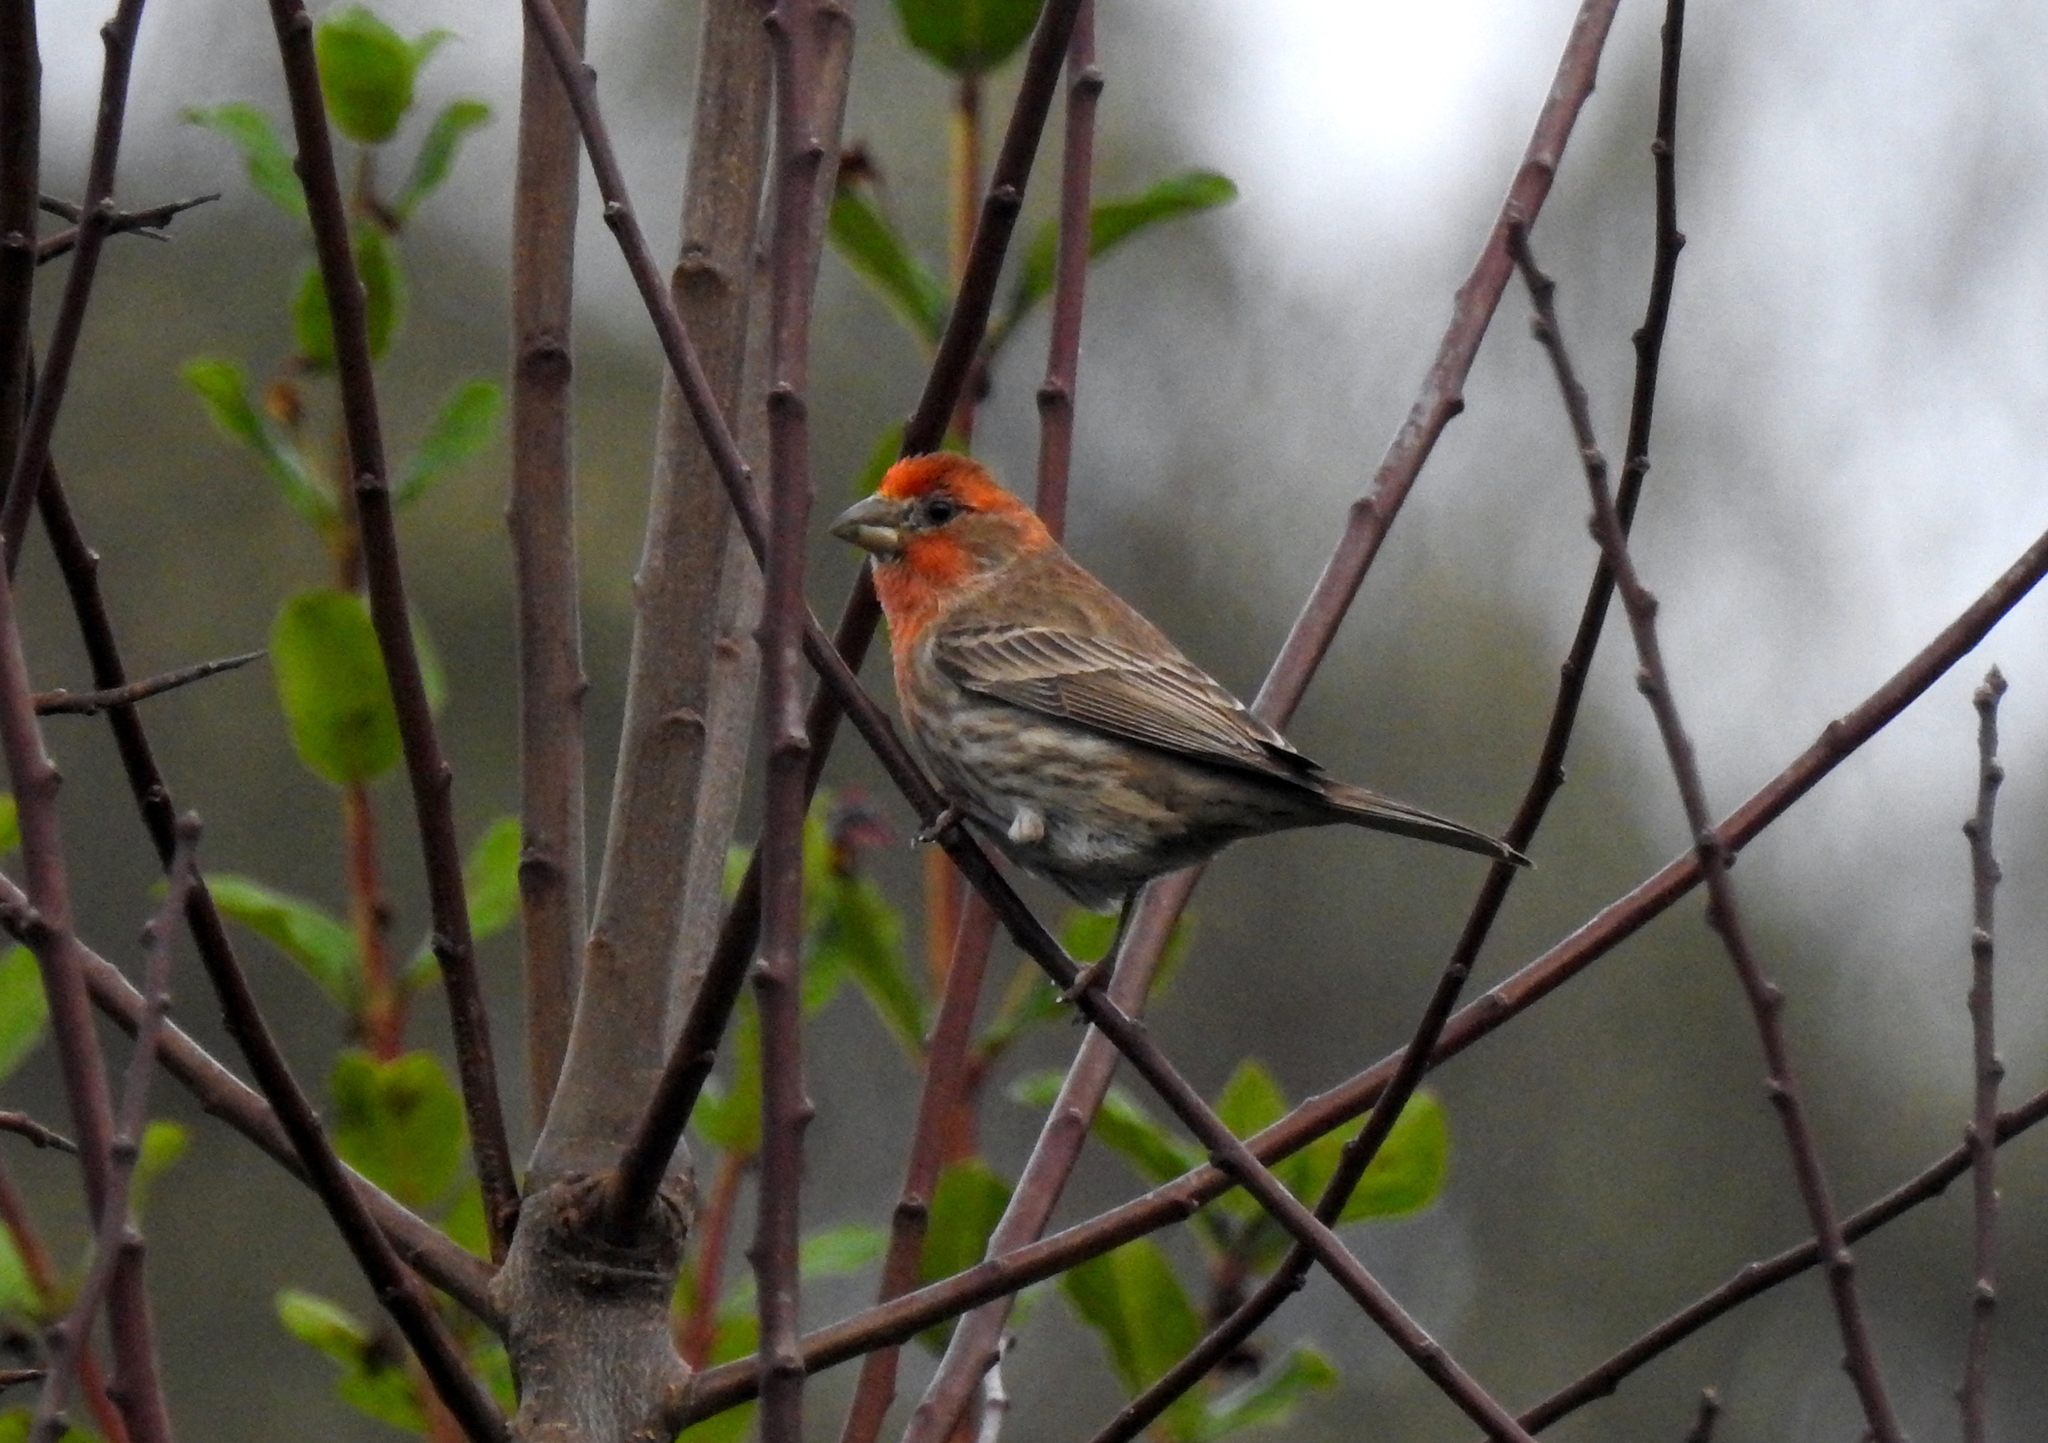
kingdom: Animalia
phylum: Chordata
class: Aves
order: Passeriformes
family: Fringillidae
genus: Haemorhous
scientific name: Haemorhous mexicanus
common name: House finch
